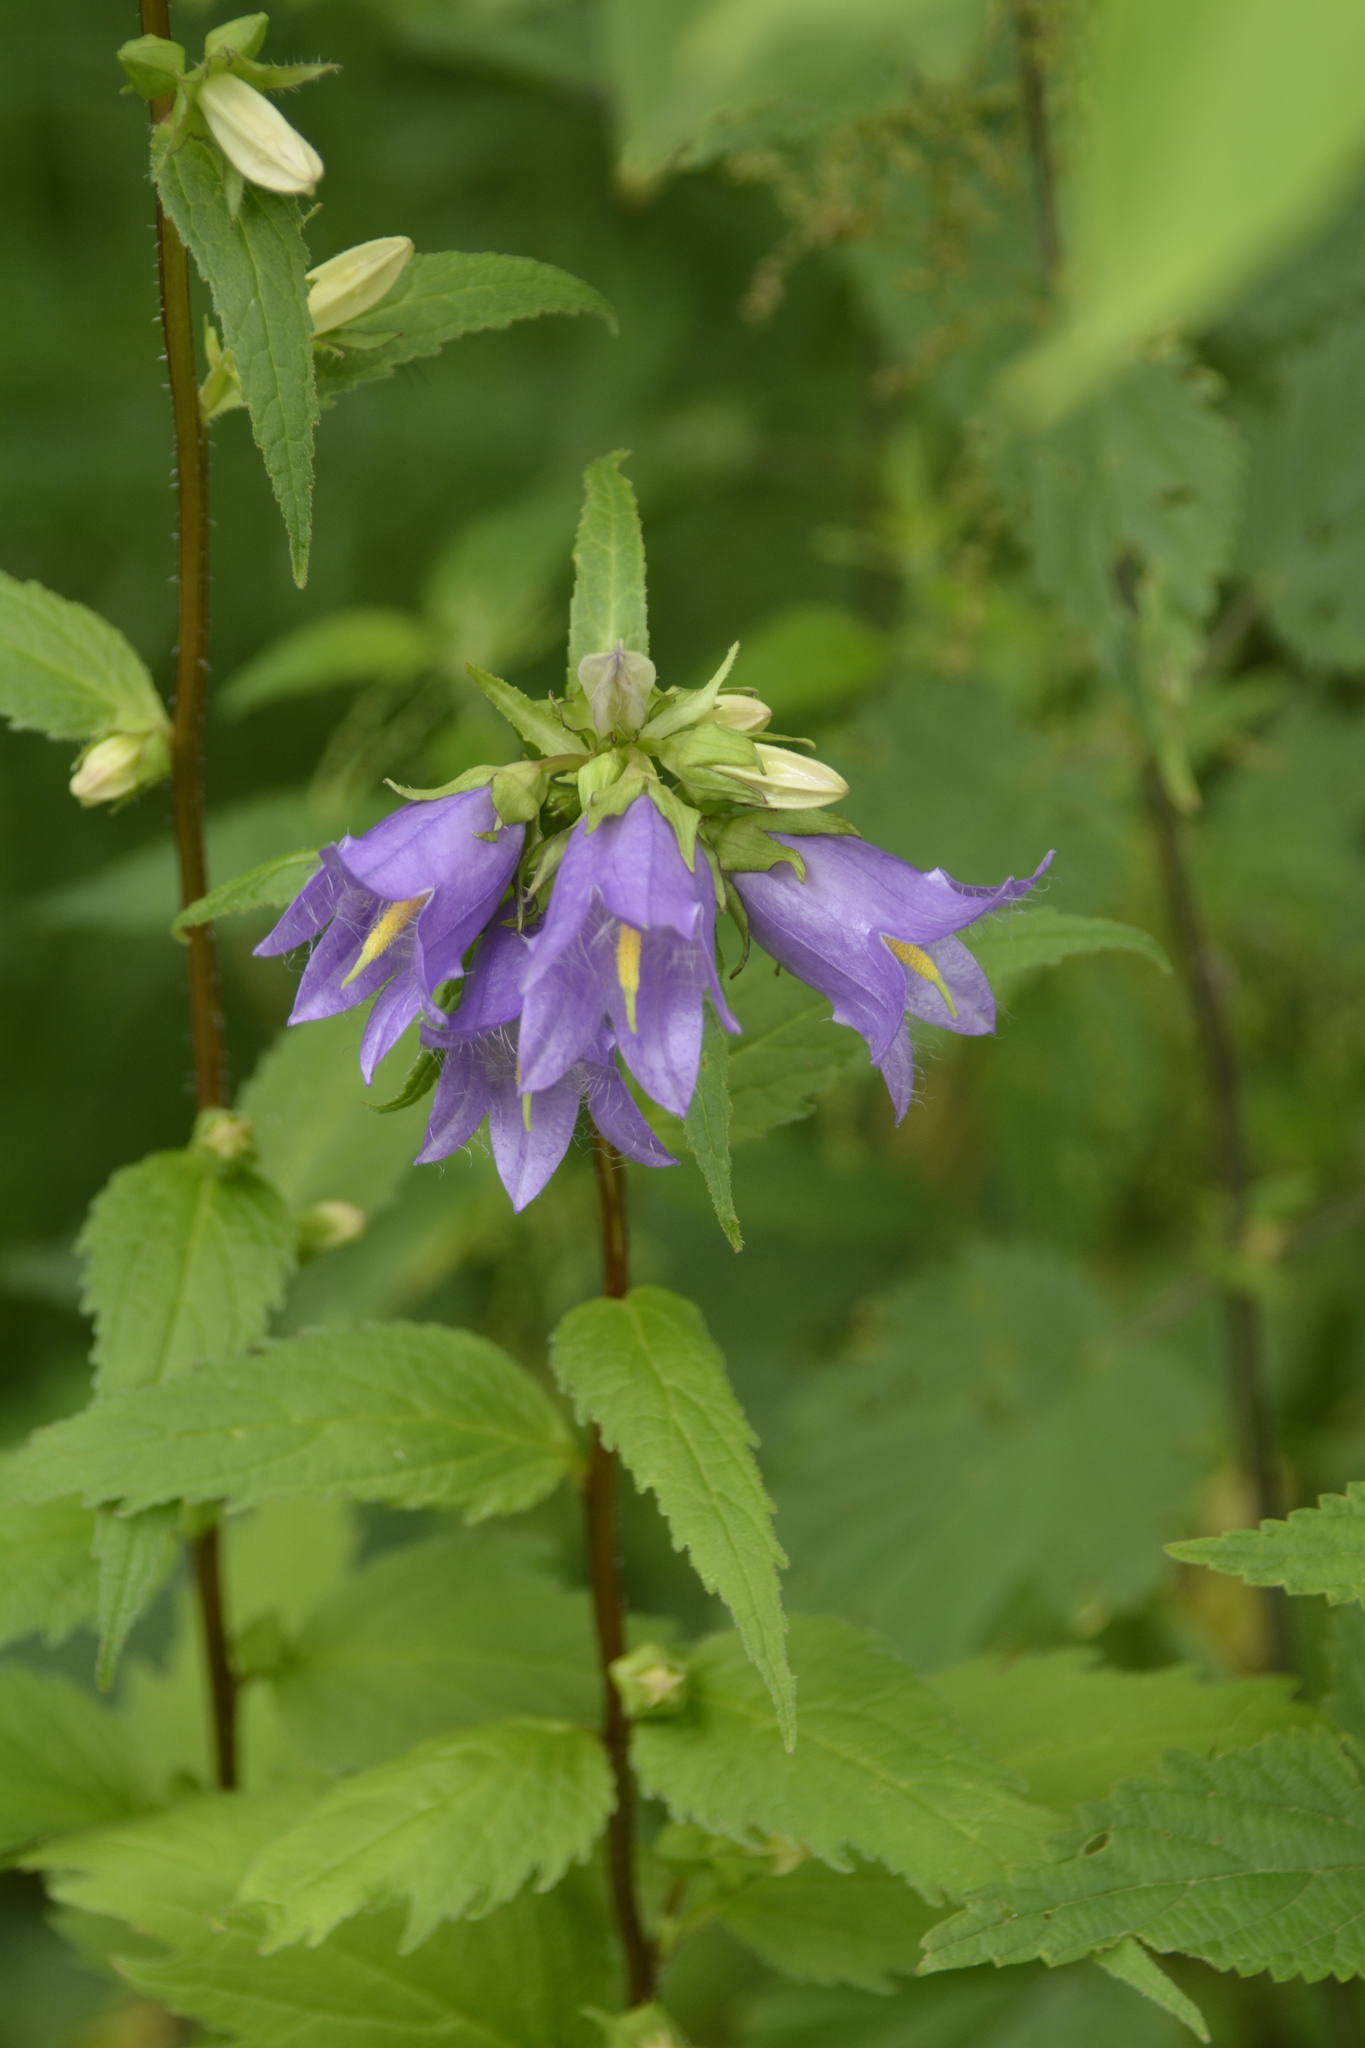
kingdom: Plantae
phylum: Tracheophyta
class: Magnoliopsida
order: Asterales
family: Campanulaceae
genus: Campanula
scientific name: Campanula trachelium
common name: Nettle-leaved bellflower
